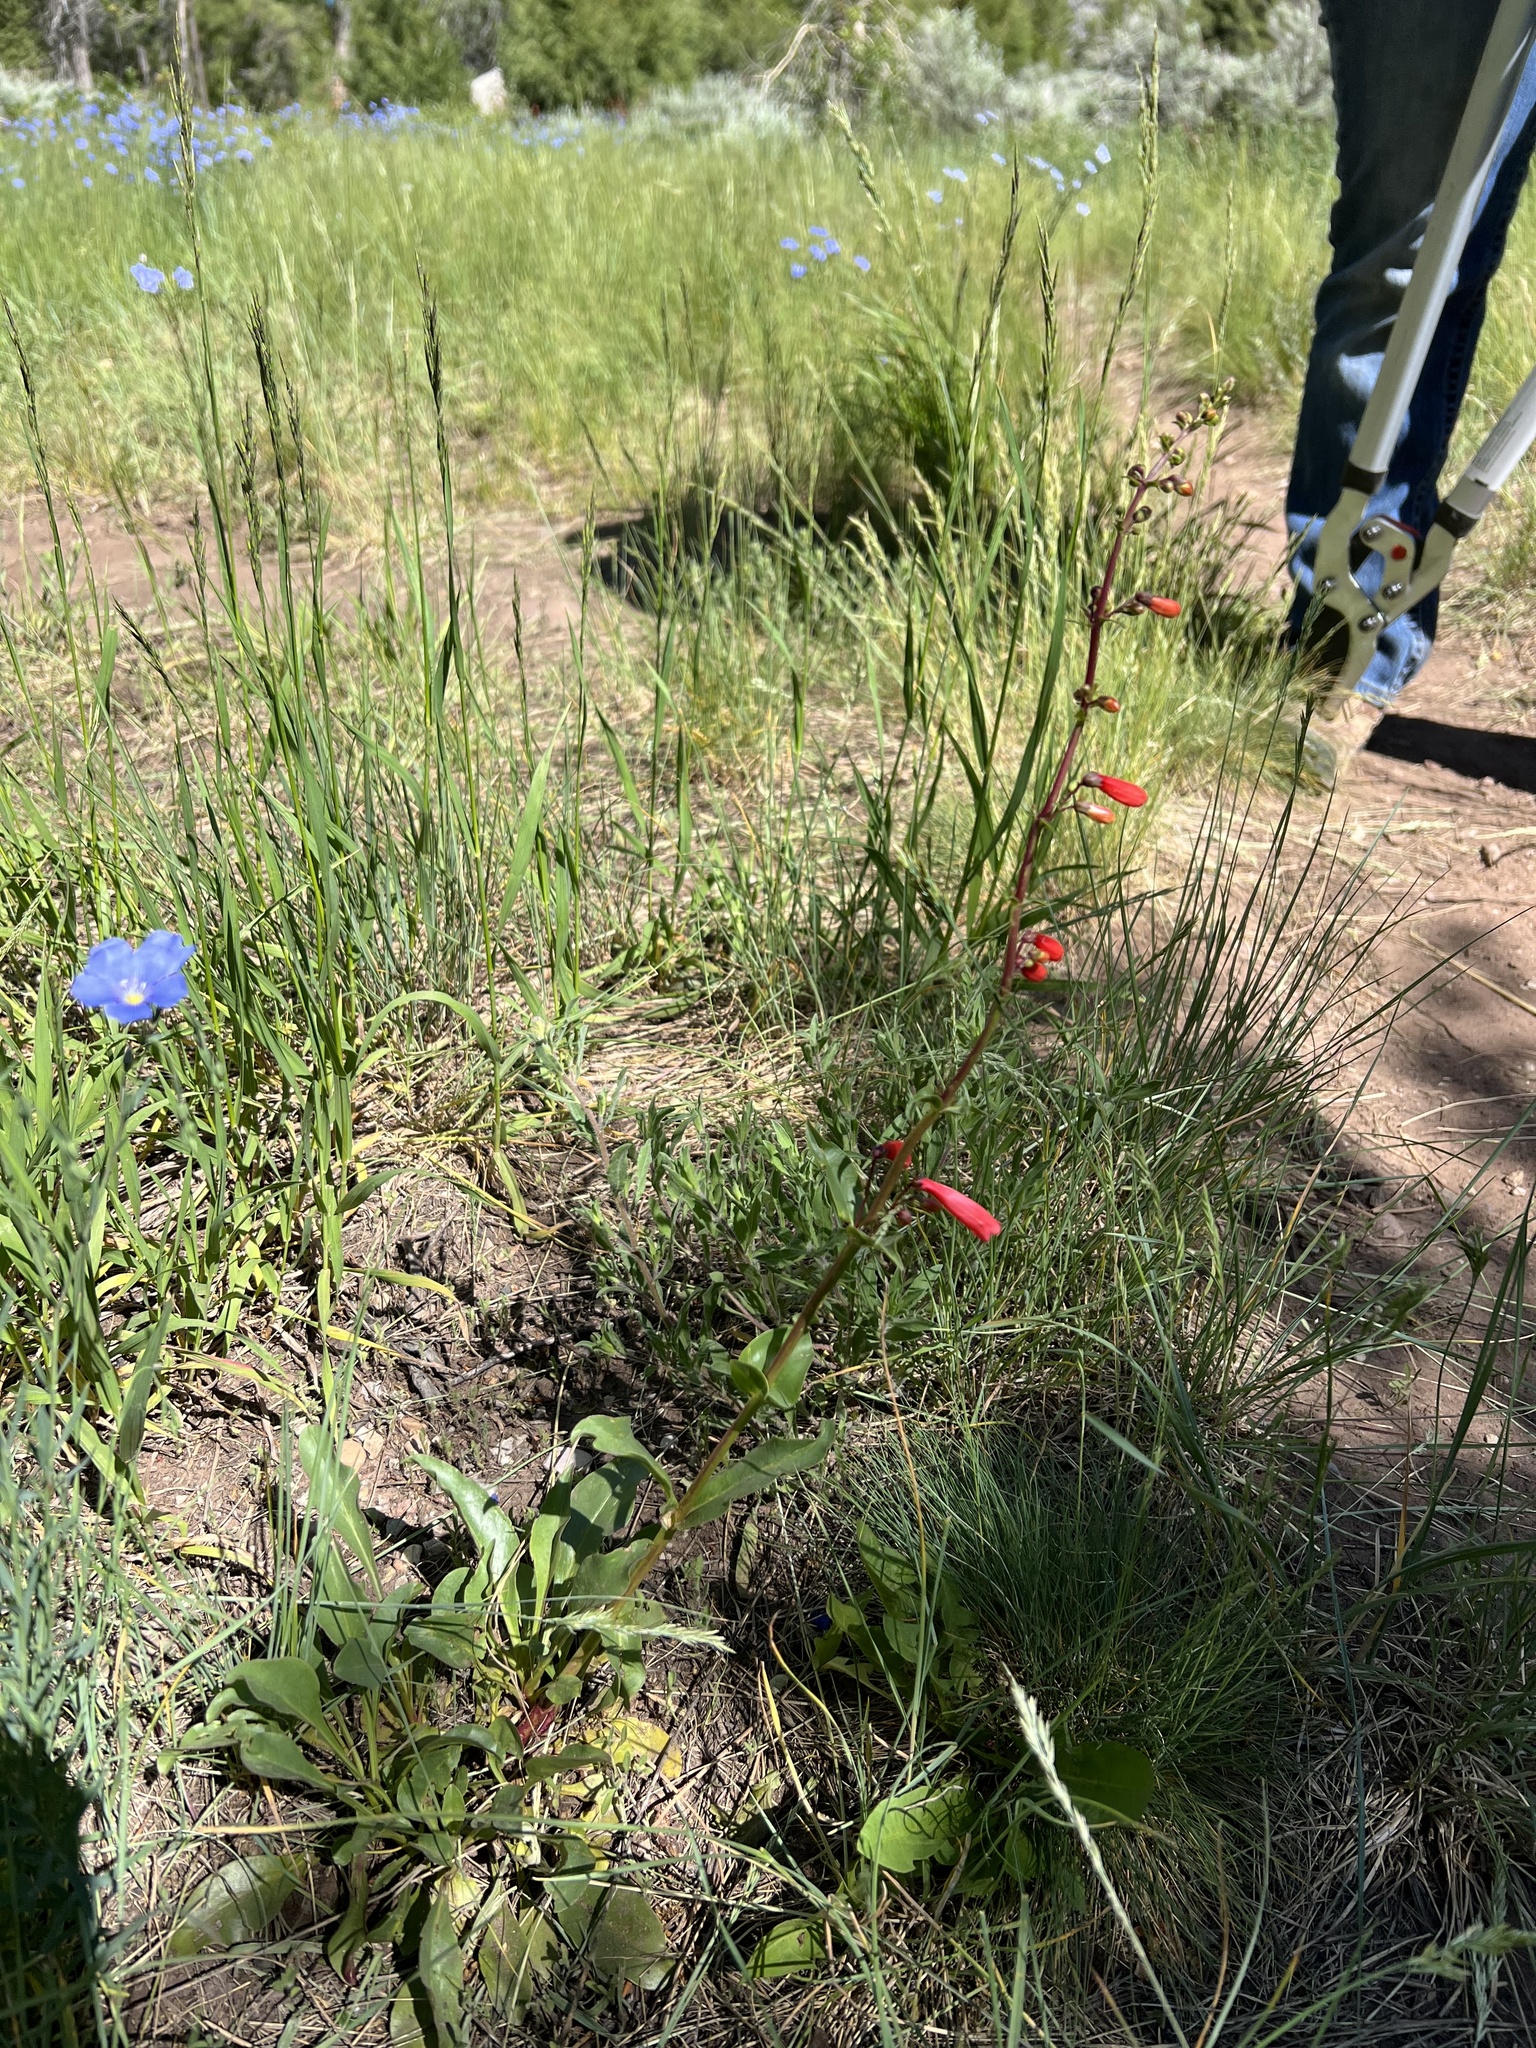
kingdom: Plantae
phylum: Tracheophyta
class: Magnoliopsida
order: Lamiales
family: Plantaginaceae
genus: Penstemon
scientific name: Penstemon eatonii
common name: Eaton's penstemon
